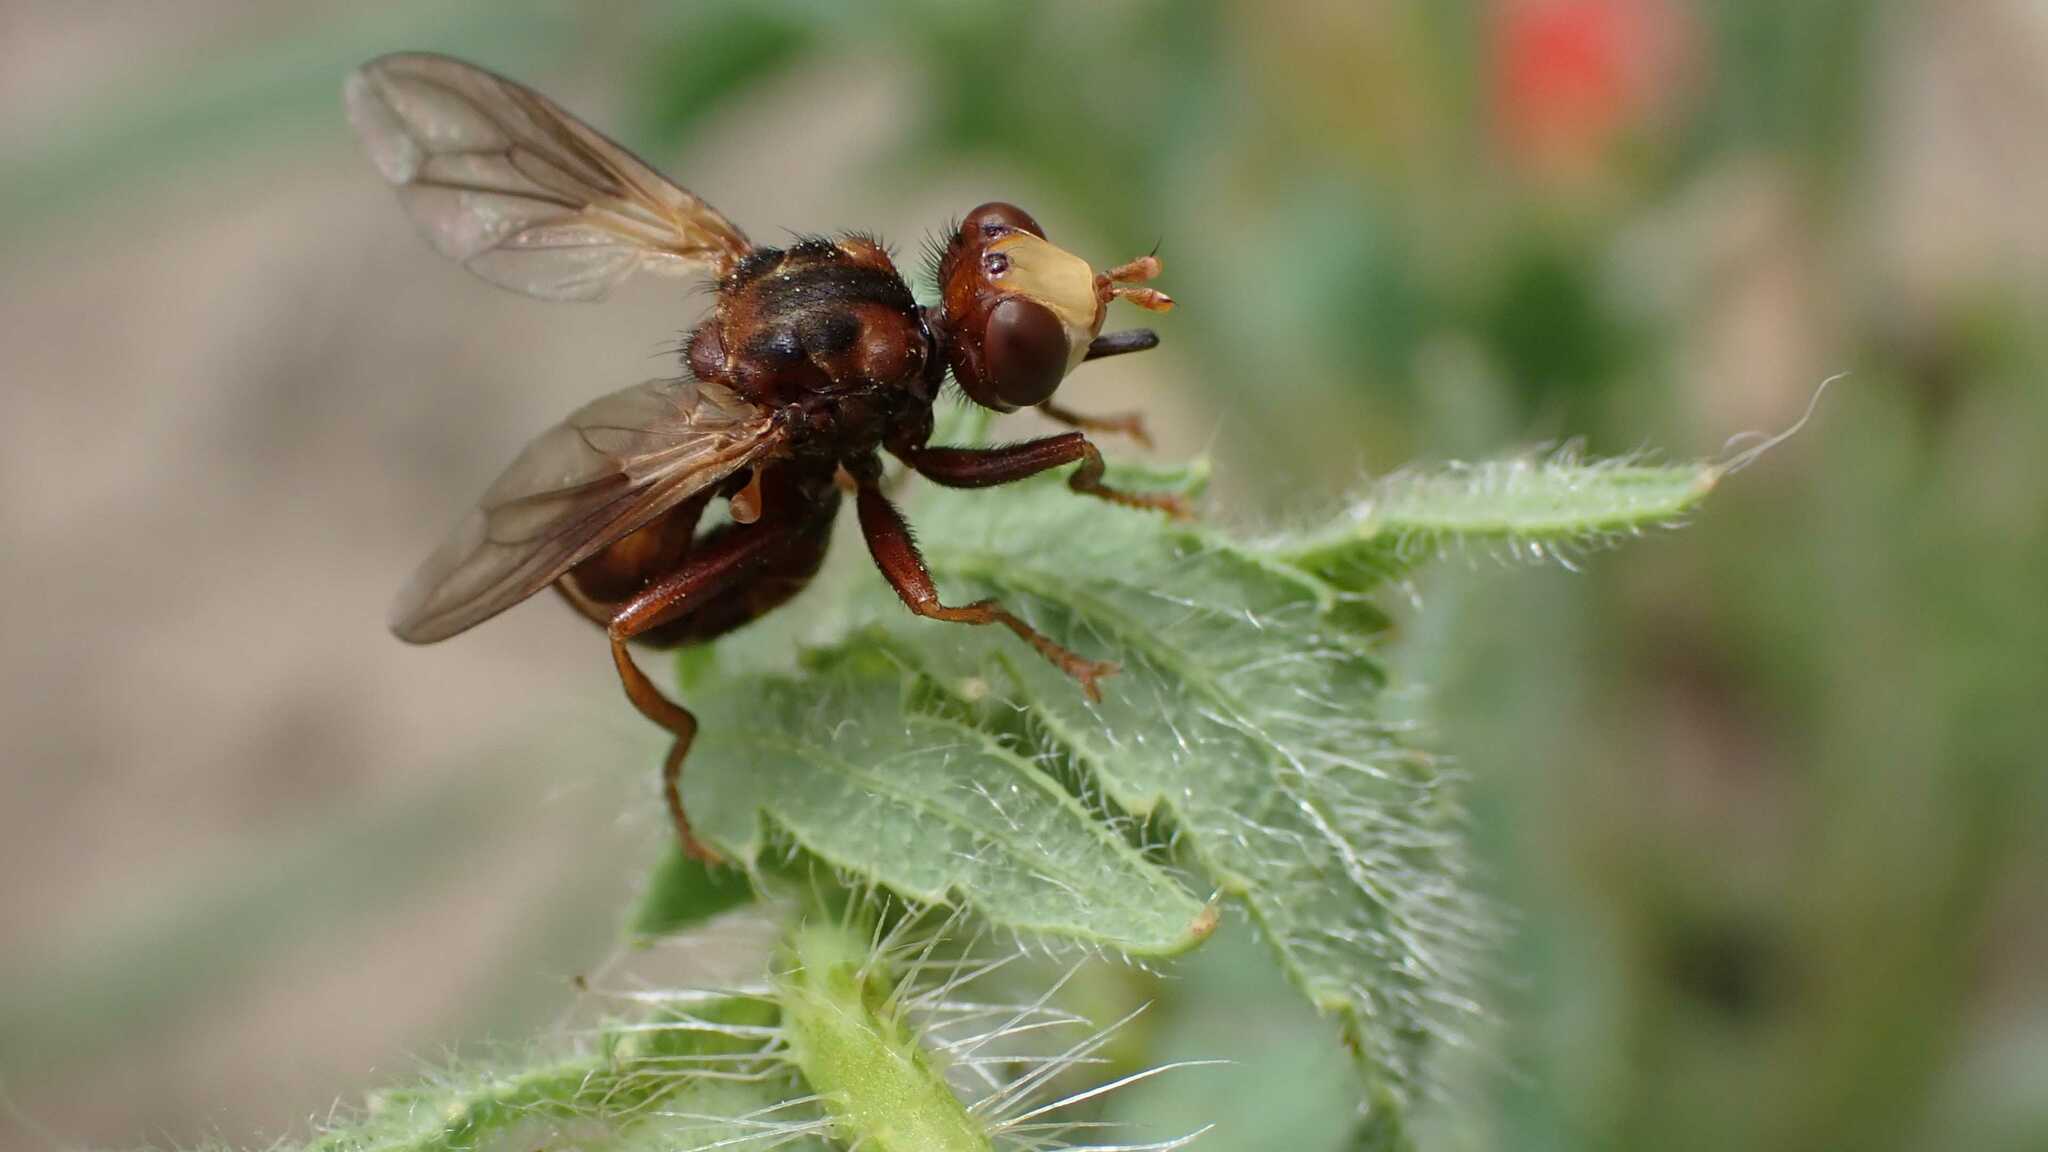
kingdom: Animalia
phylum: Arthropoda
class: Insecta
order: Diptera
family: Conopidae
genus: Sicus
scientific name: Sicus ferrugineus
